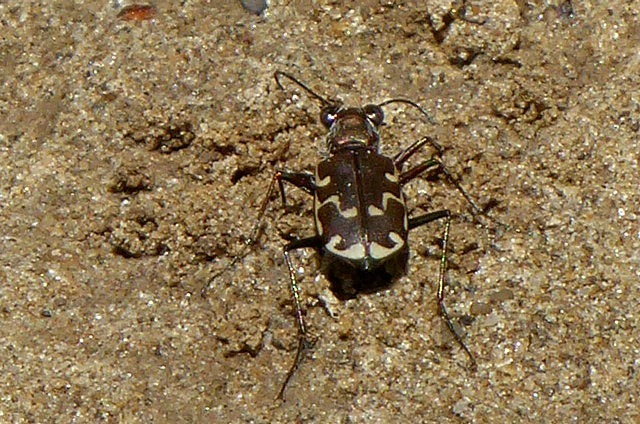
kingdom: Animalia
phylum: Arthropoda
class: Insecta
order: Coleoptera
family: Carabidae
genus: Cicindela
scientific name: Cicindela repanda
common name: Bronzed tiger beetle
